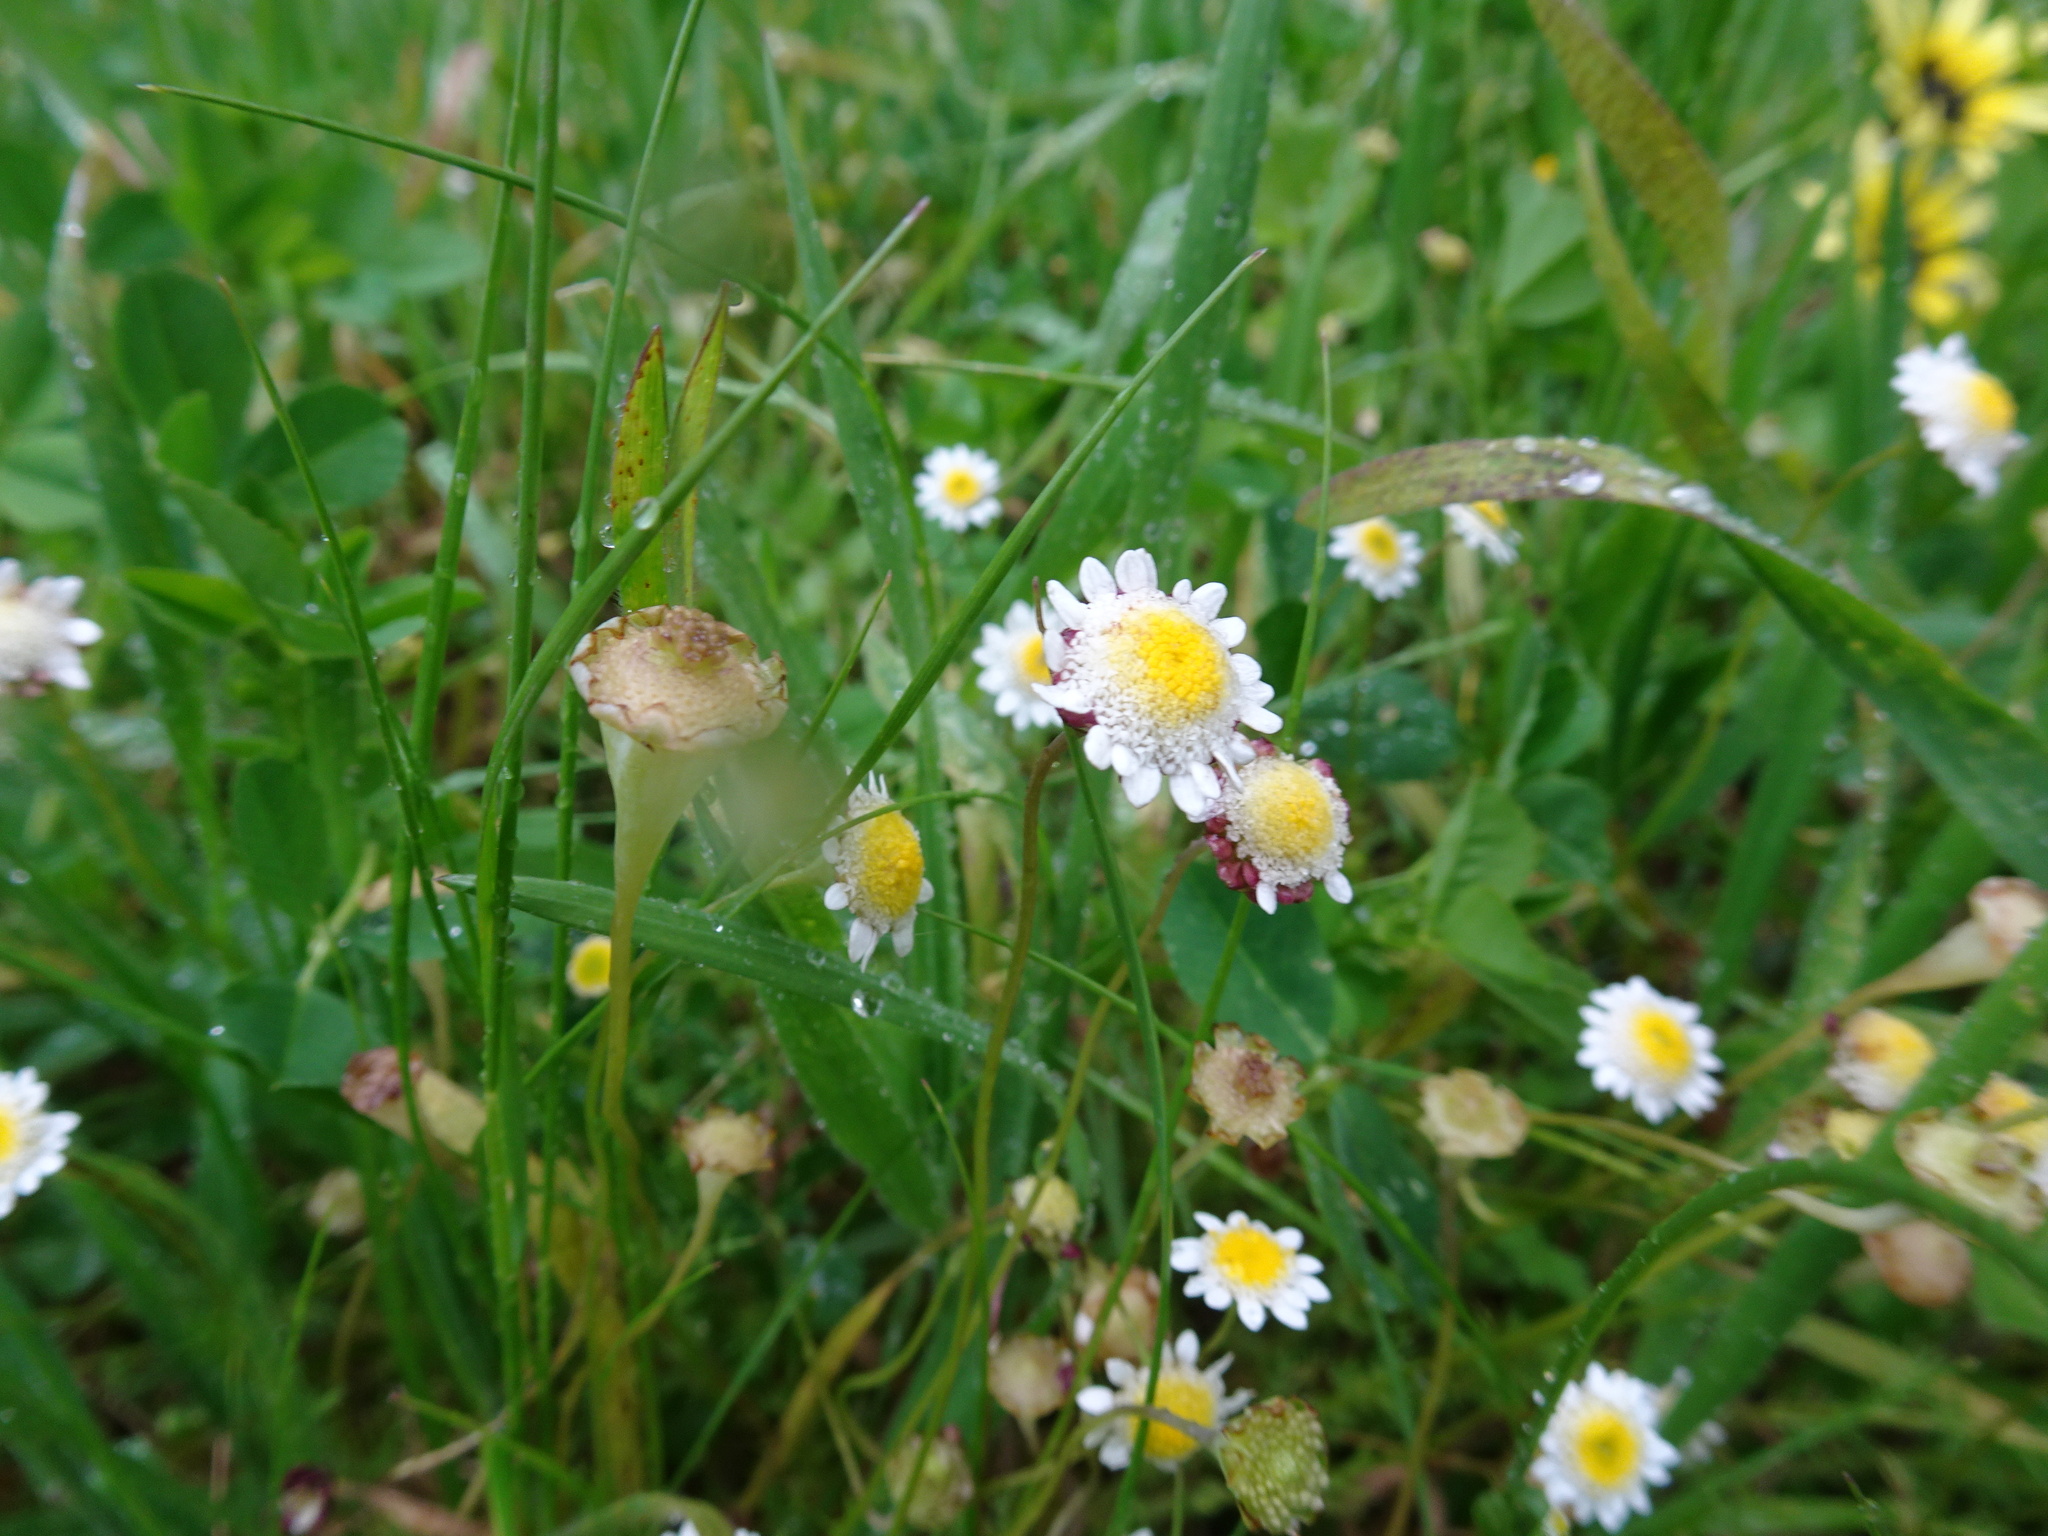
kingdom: Plantae
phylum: Tracheophyta
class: Magnoliopsida
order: Asterales
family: Asteraceae
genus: Cotula
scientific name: Cotula turbinata
